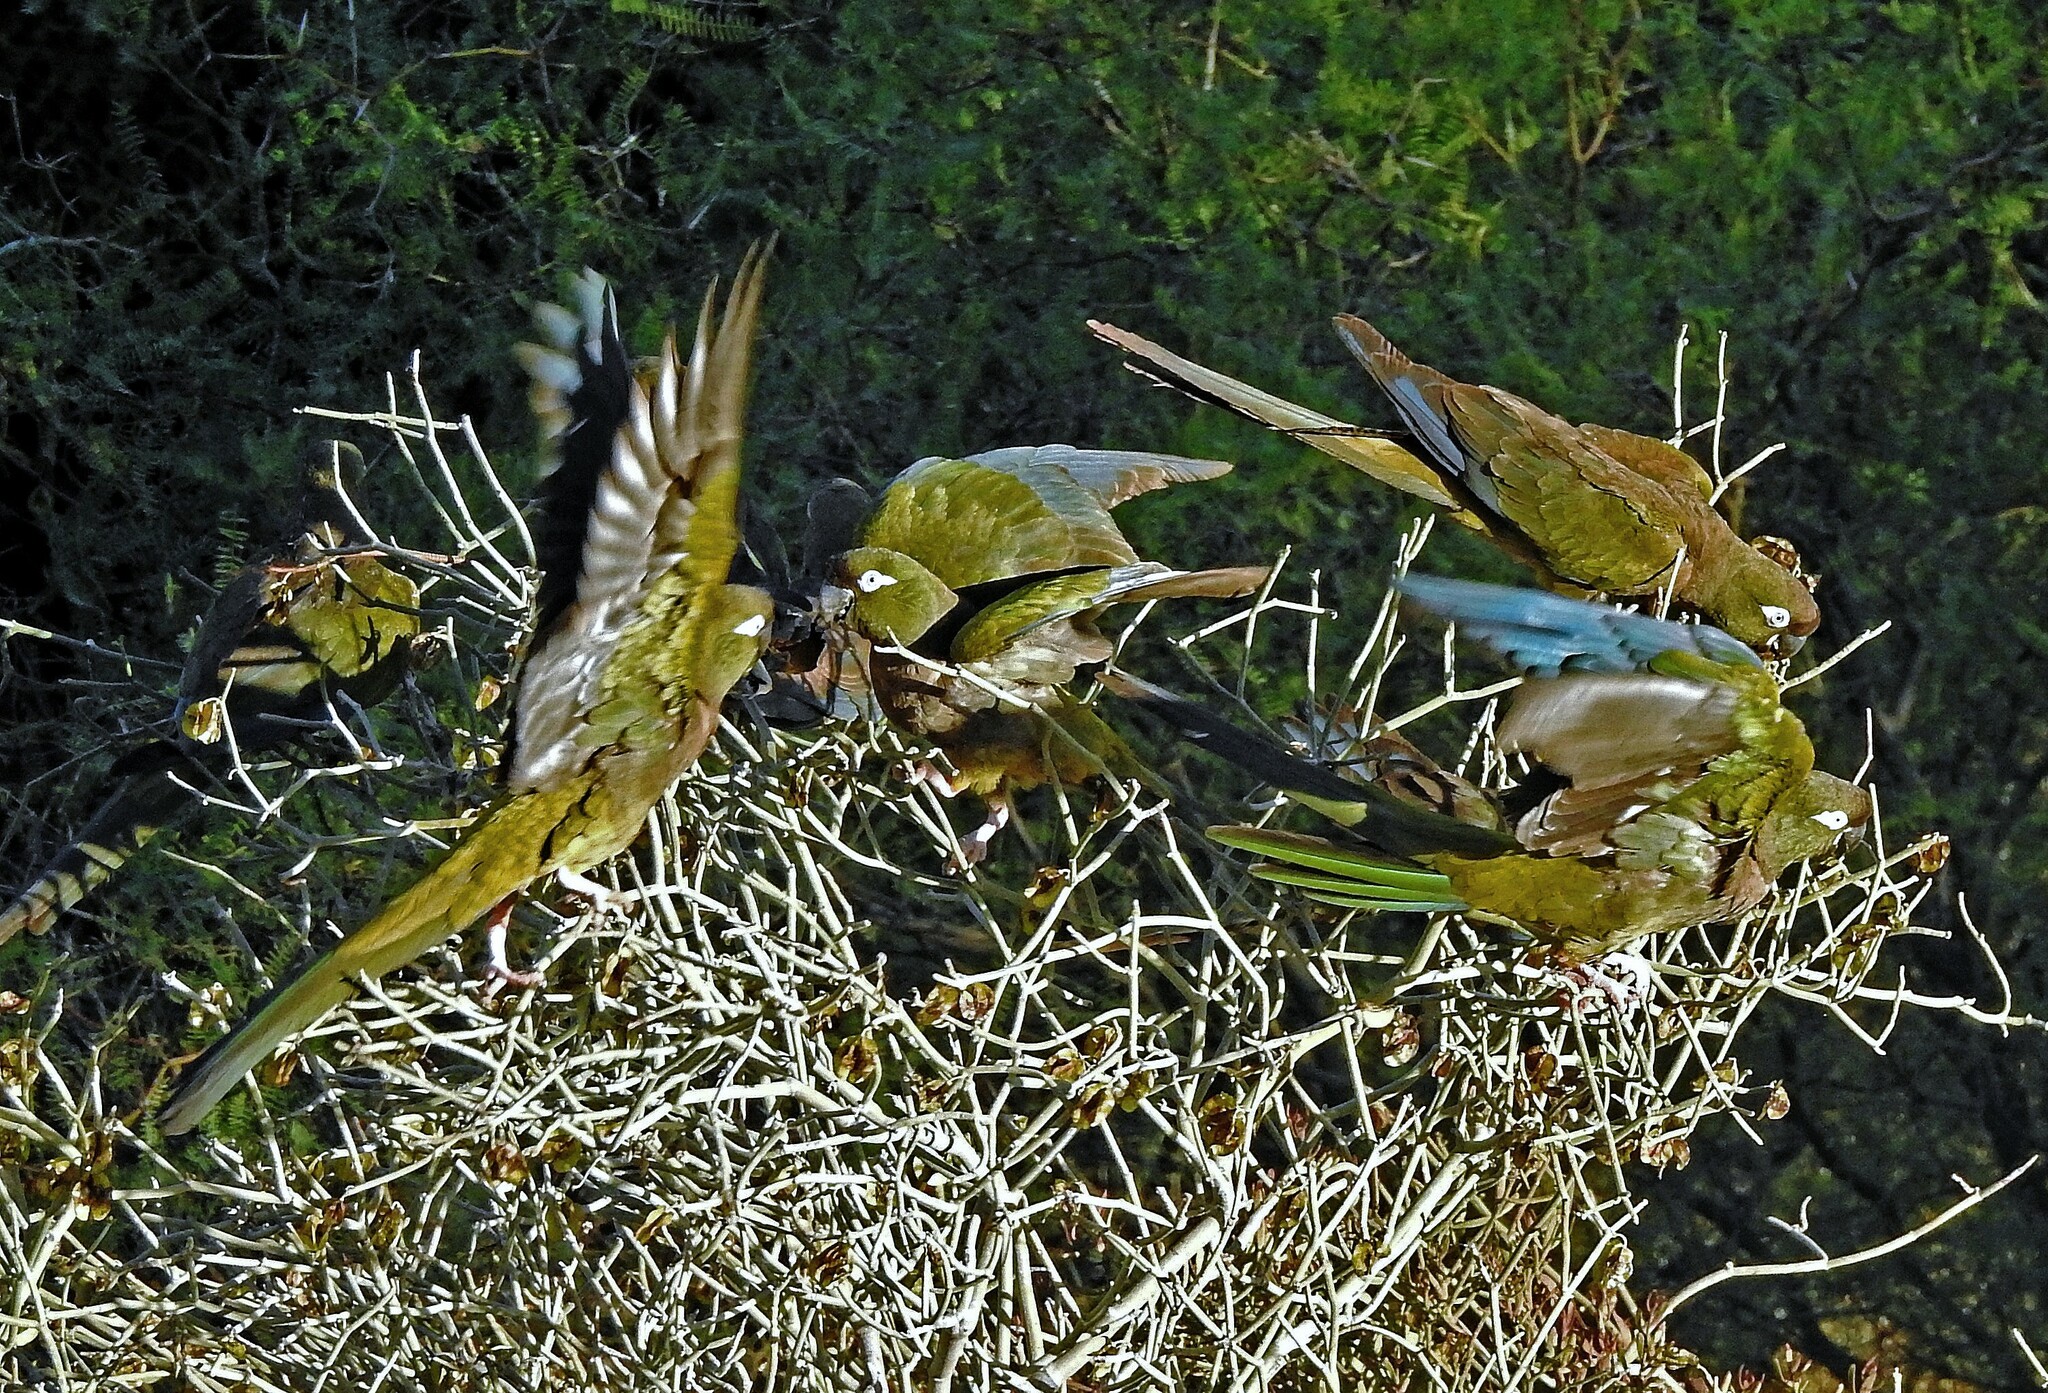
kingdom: Animalia
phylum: Chordata
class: Aves
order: Psittaciformes
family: Psittacidae
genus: Cyanoliseus
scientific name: Cyanoliseus patagonus
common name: Burrowing parrot
